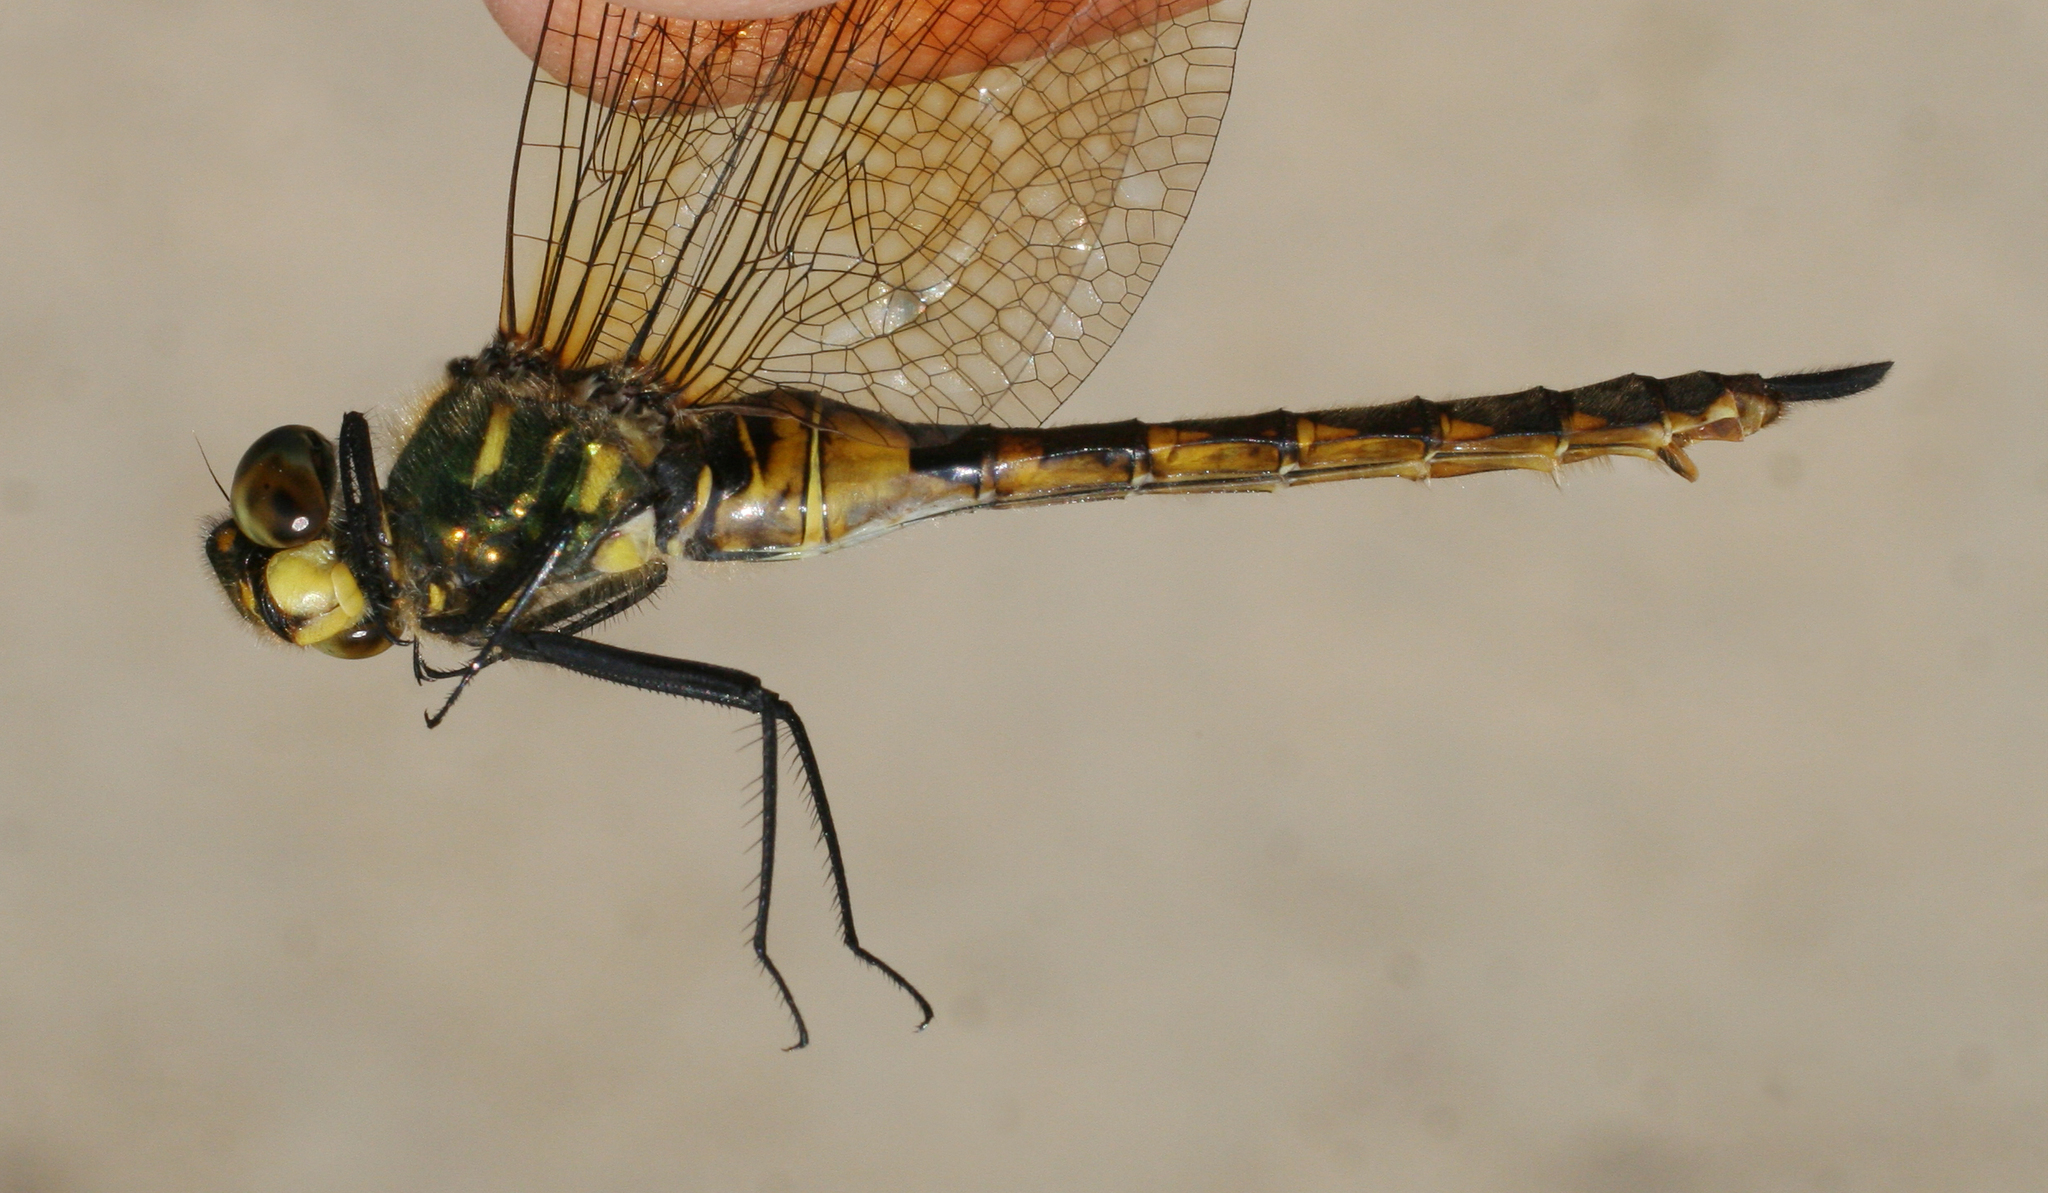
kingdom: Animalia
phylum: Arthropoda
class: Insecta
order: Odonata
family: Corduliidae
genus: Somatochlora
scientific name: Somatochlora flavomaculata
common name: Yellow-spotted emerald
